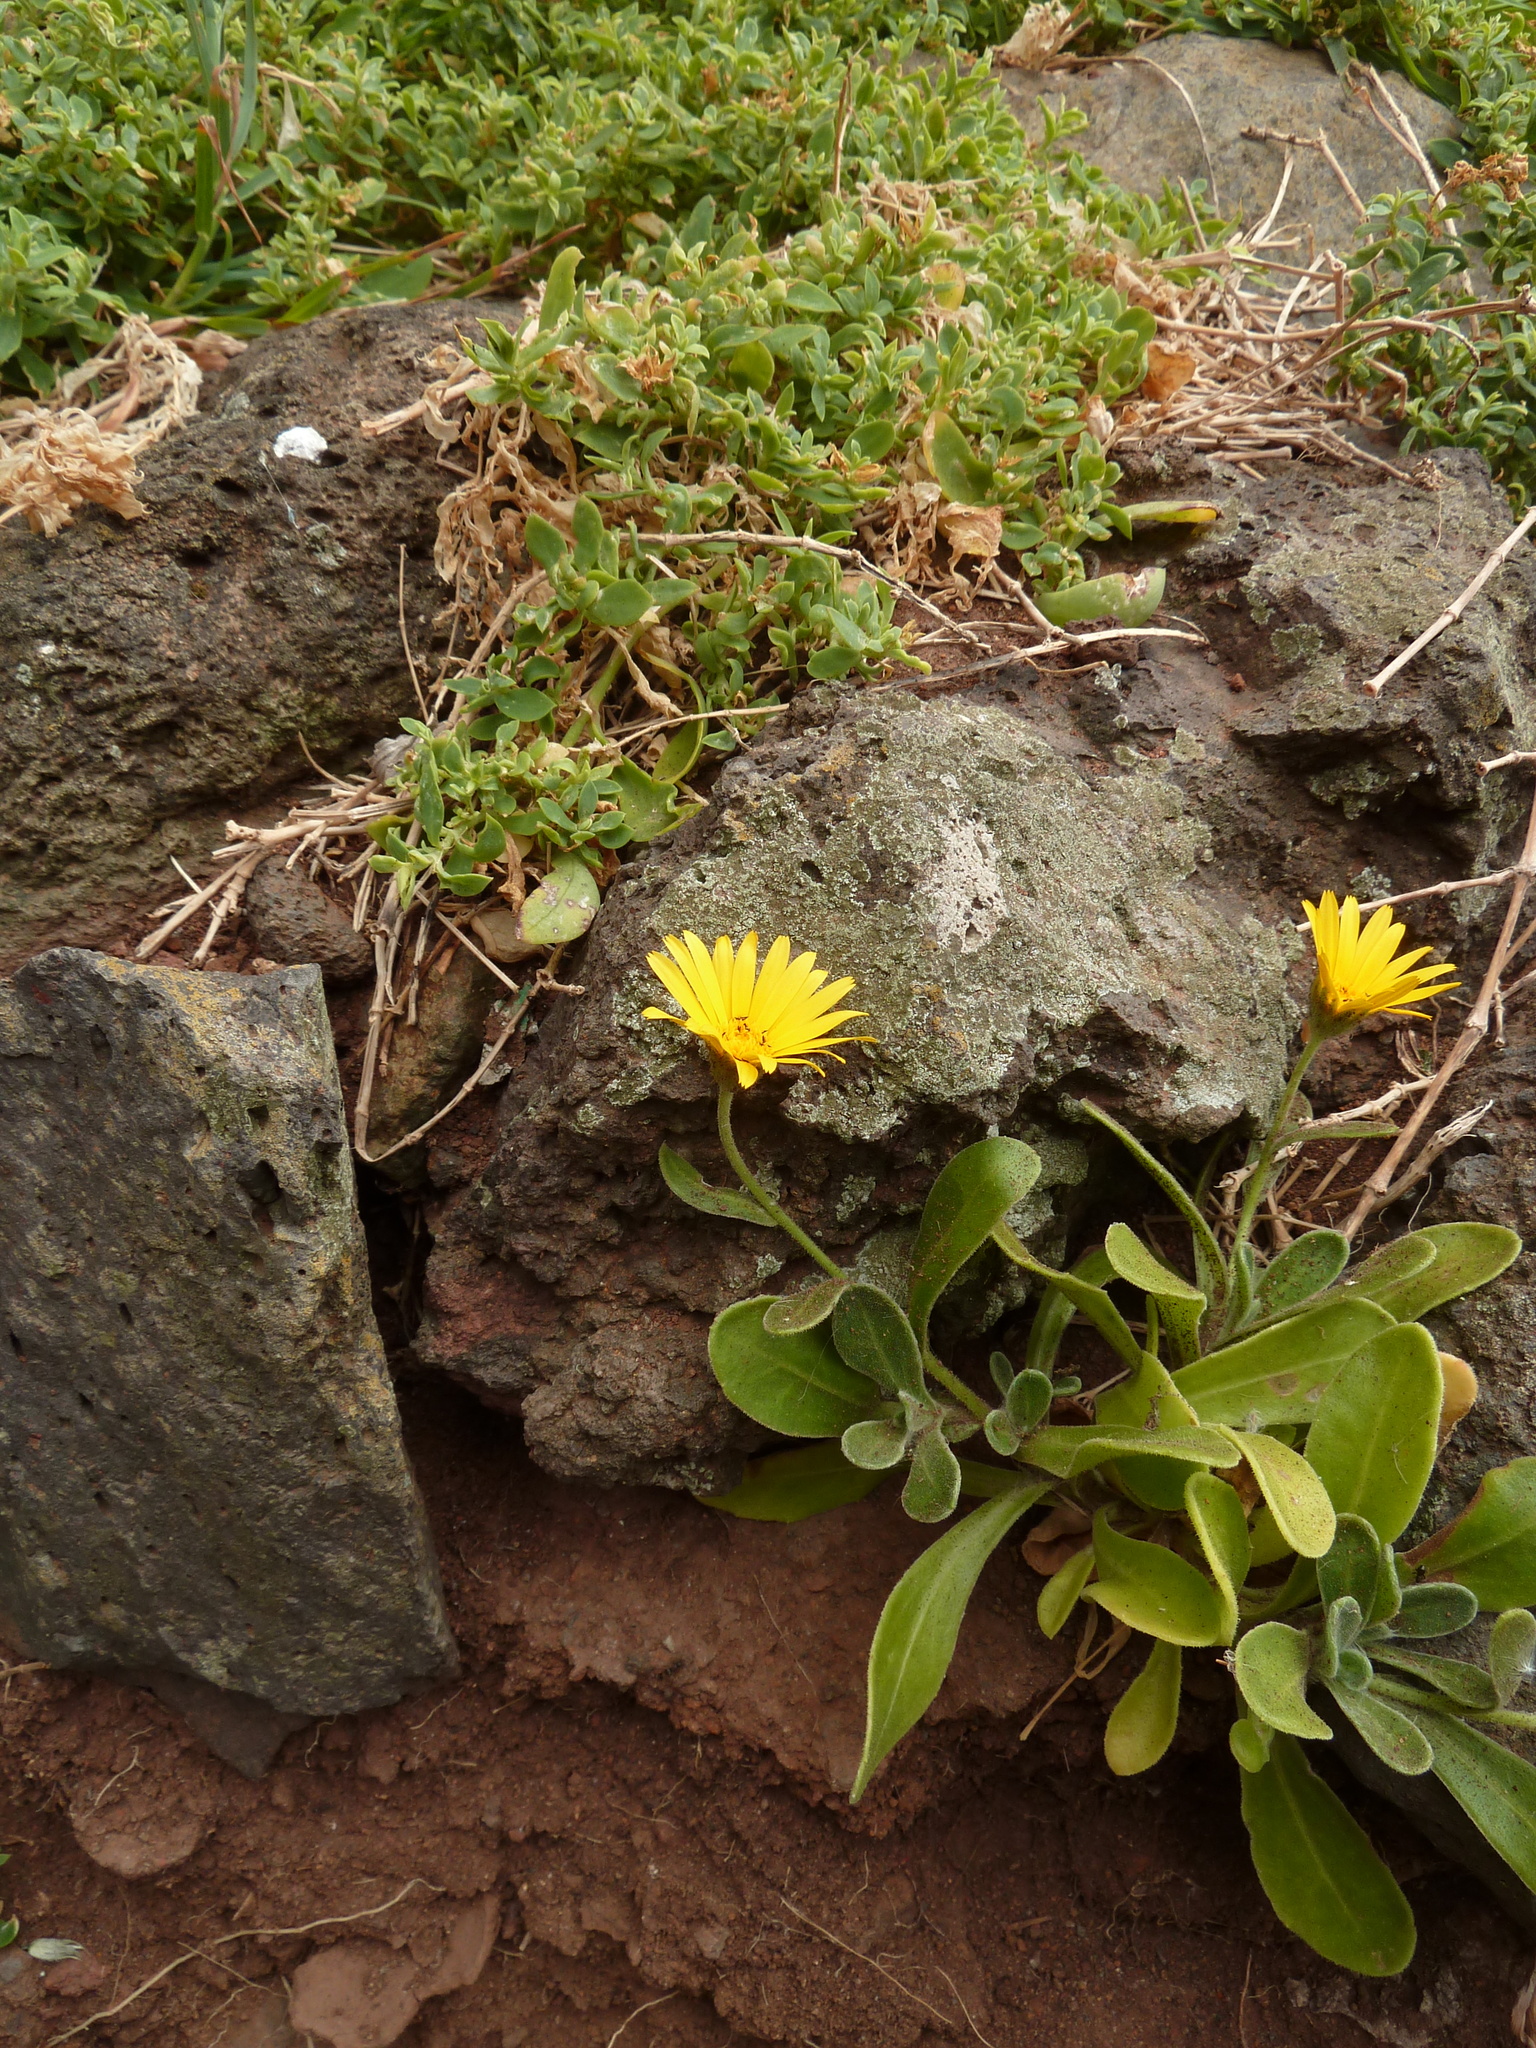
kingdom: Plantae
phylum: Tracheophyta
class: Magnoliopsida
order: Asterales
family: Asteraceae
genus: Calendula
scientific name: Calendula suffruticosa
